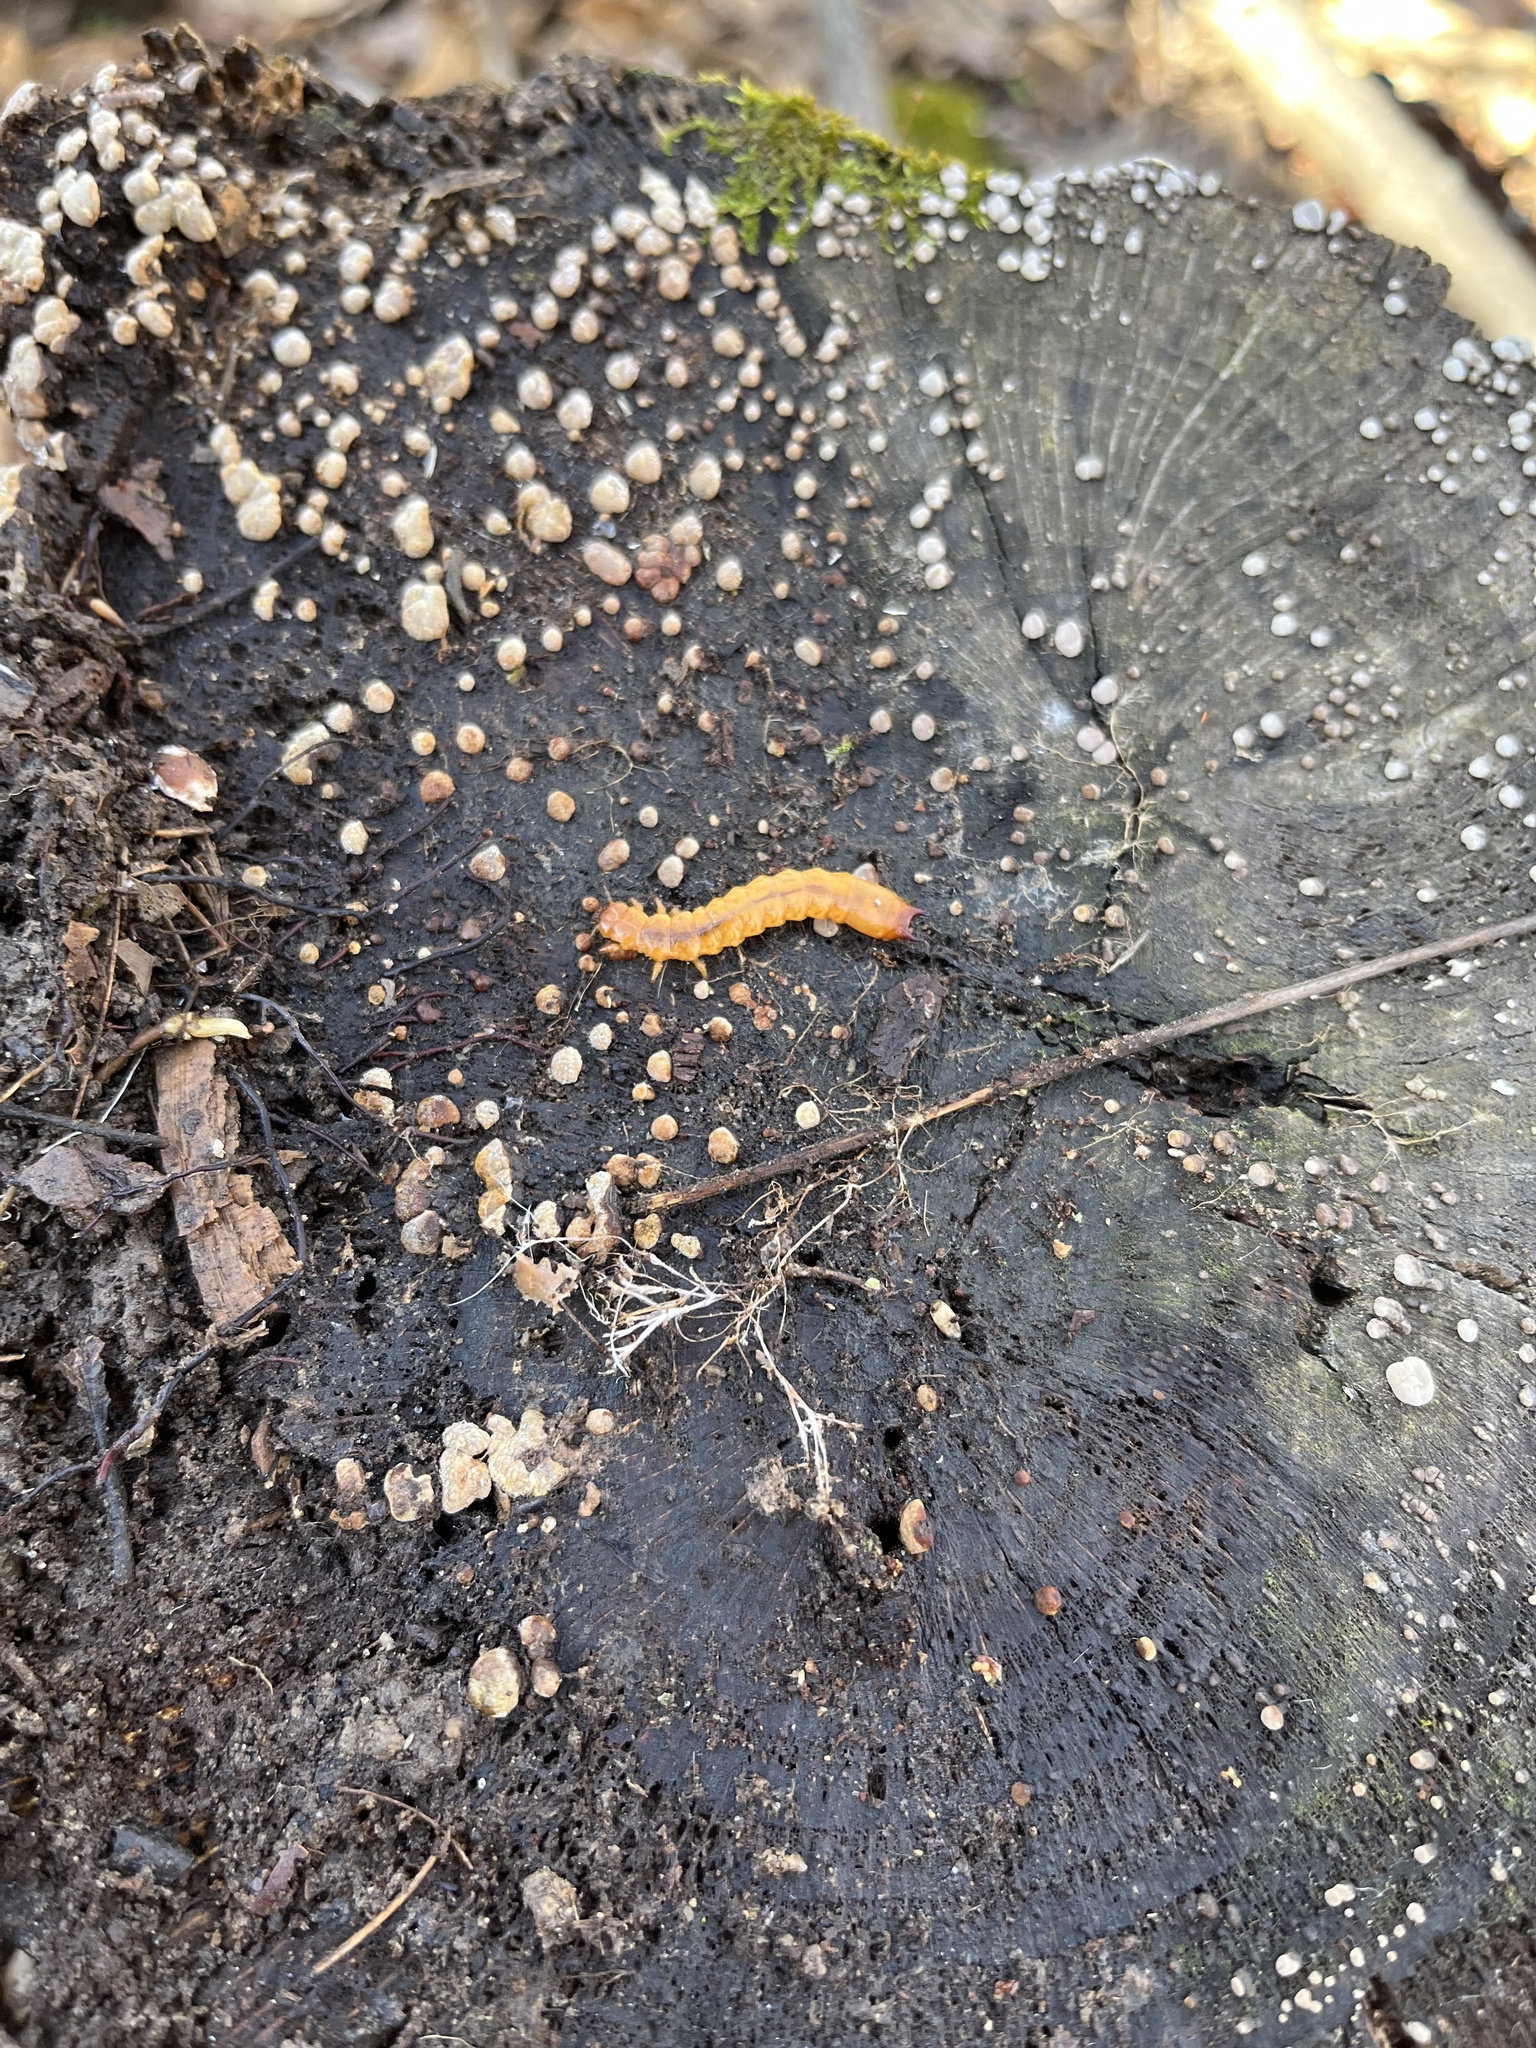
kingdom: Animalia
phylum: Arthropoda
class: Insecta
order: Coleoptera
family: Cucujidae
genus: Cucujus
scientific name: Cucujus clavipes
